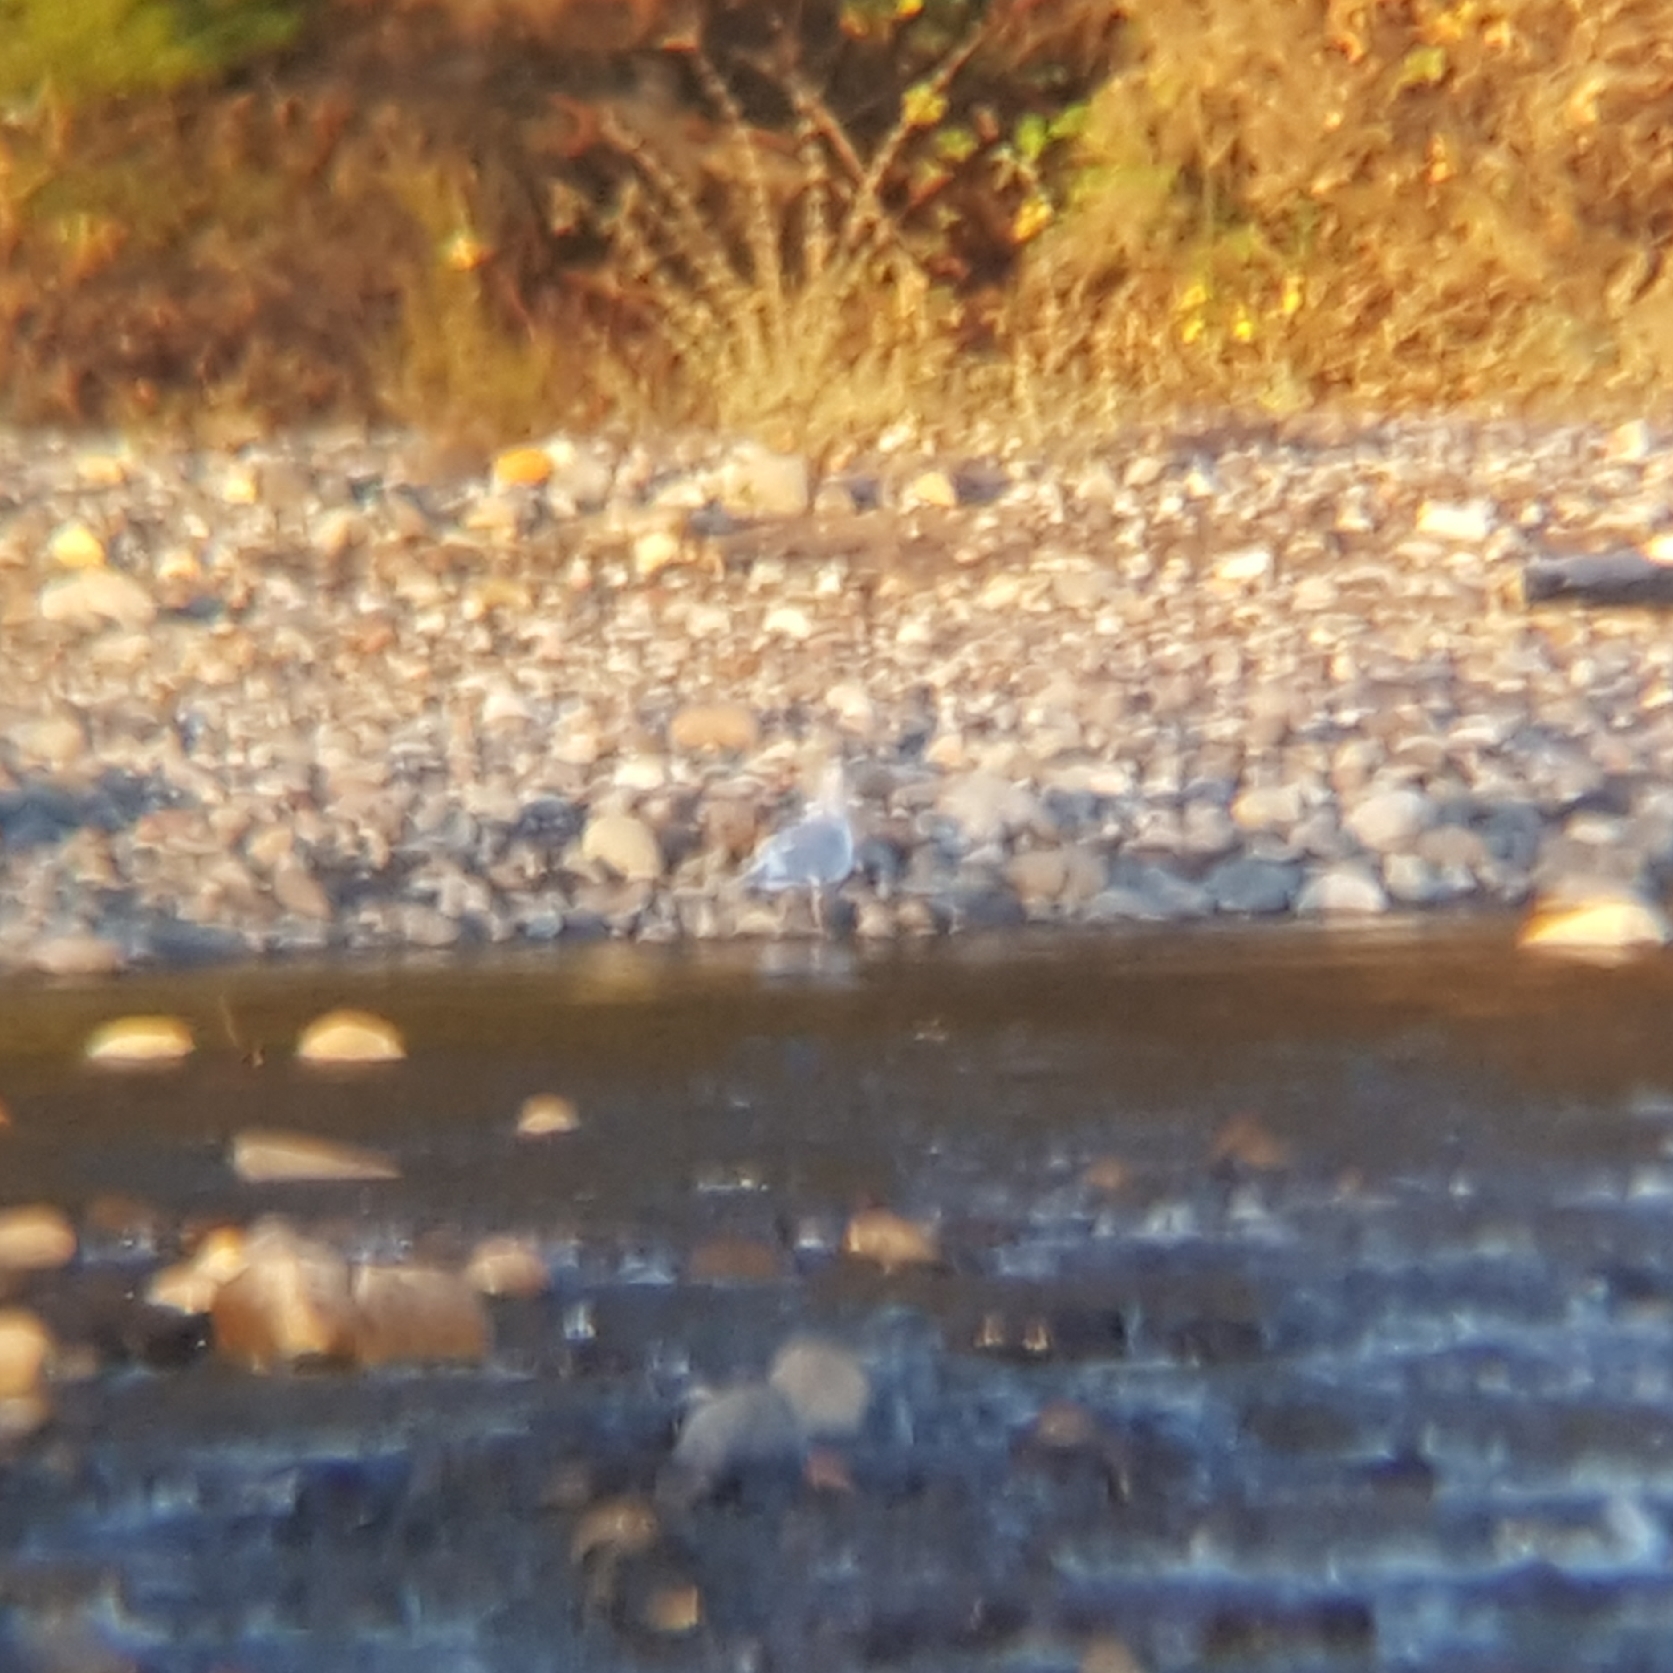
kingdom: Animalia
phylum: Chordata
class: Aves
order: Charadriiformes
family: Laridae
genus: Larus
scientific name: Larus
